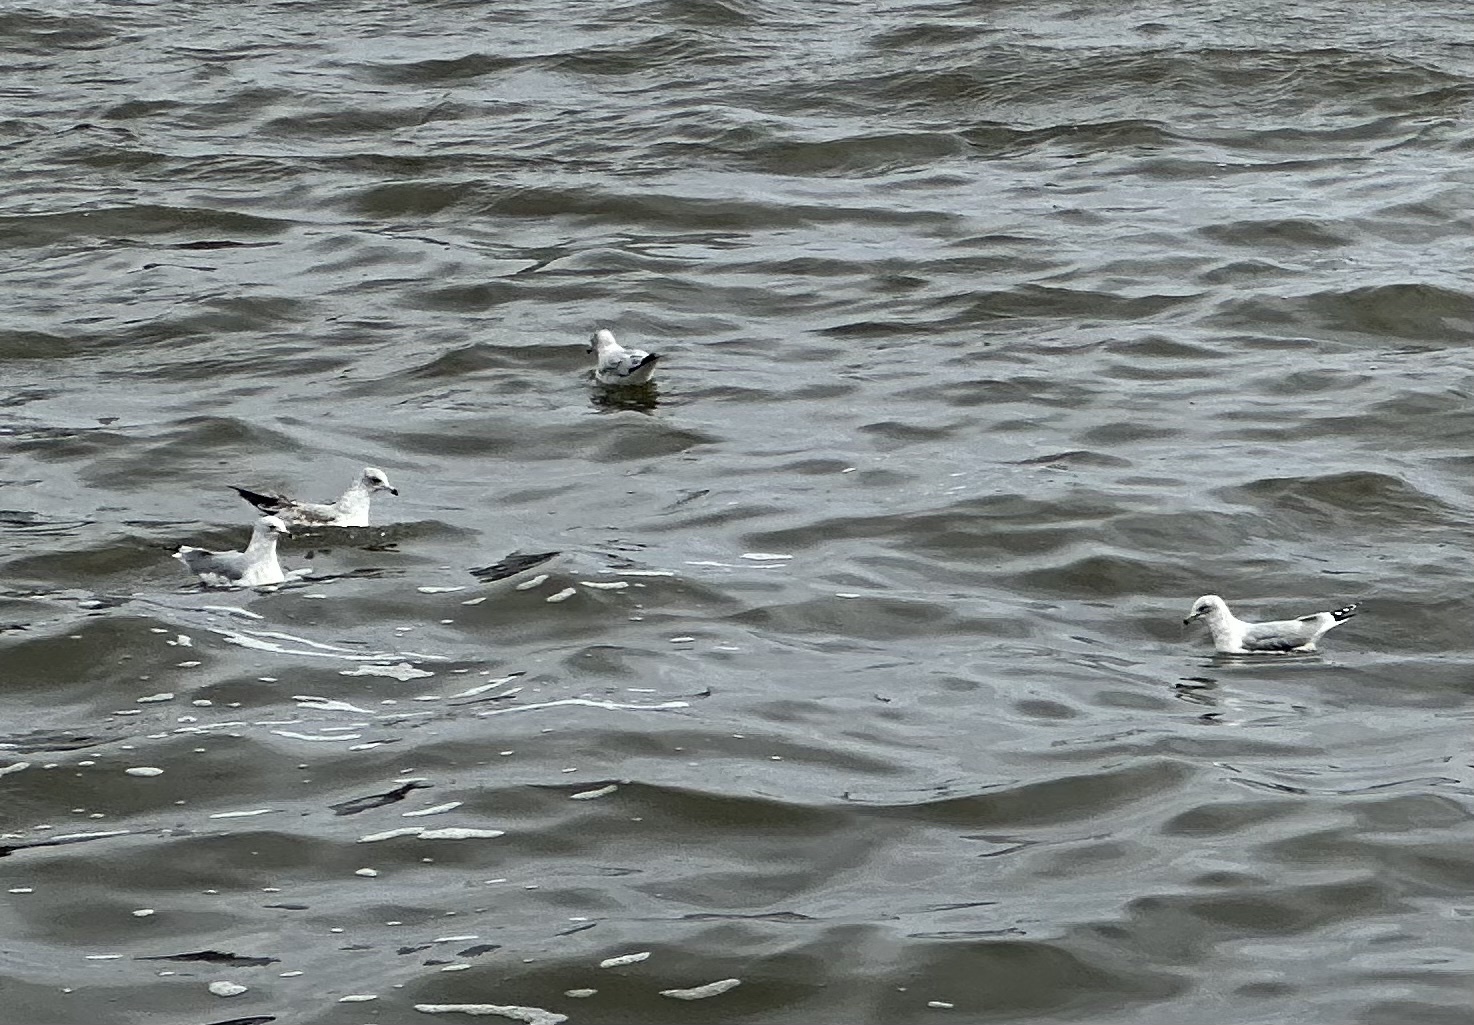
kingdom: Animalia
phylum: Chordata
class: Aves
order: Charadriiformes
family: Laridae
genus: Larus
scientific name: Larus delawarensis
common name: Ring-billed gull
